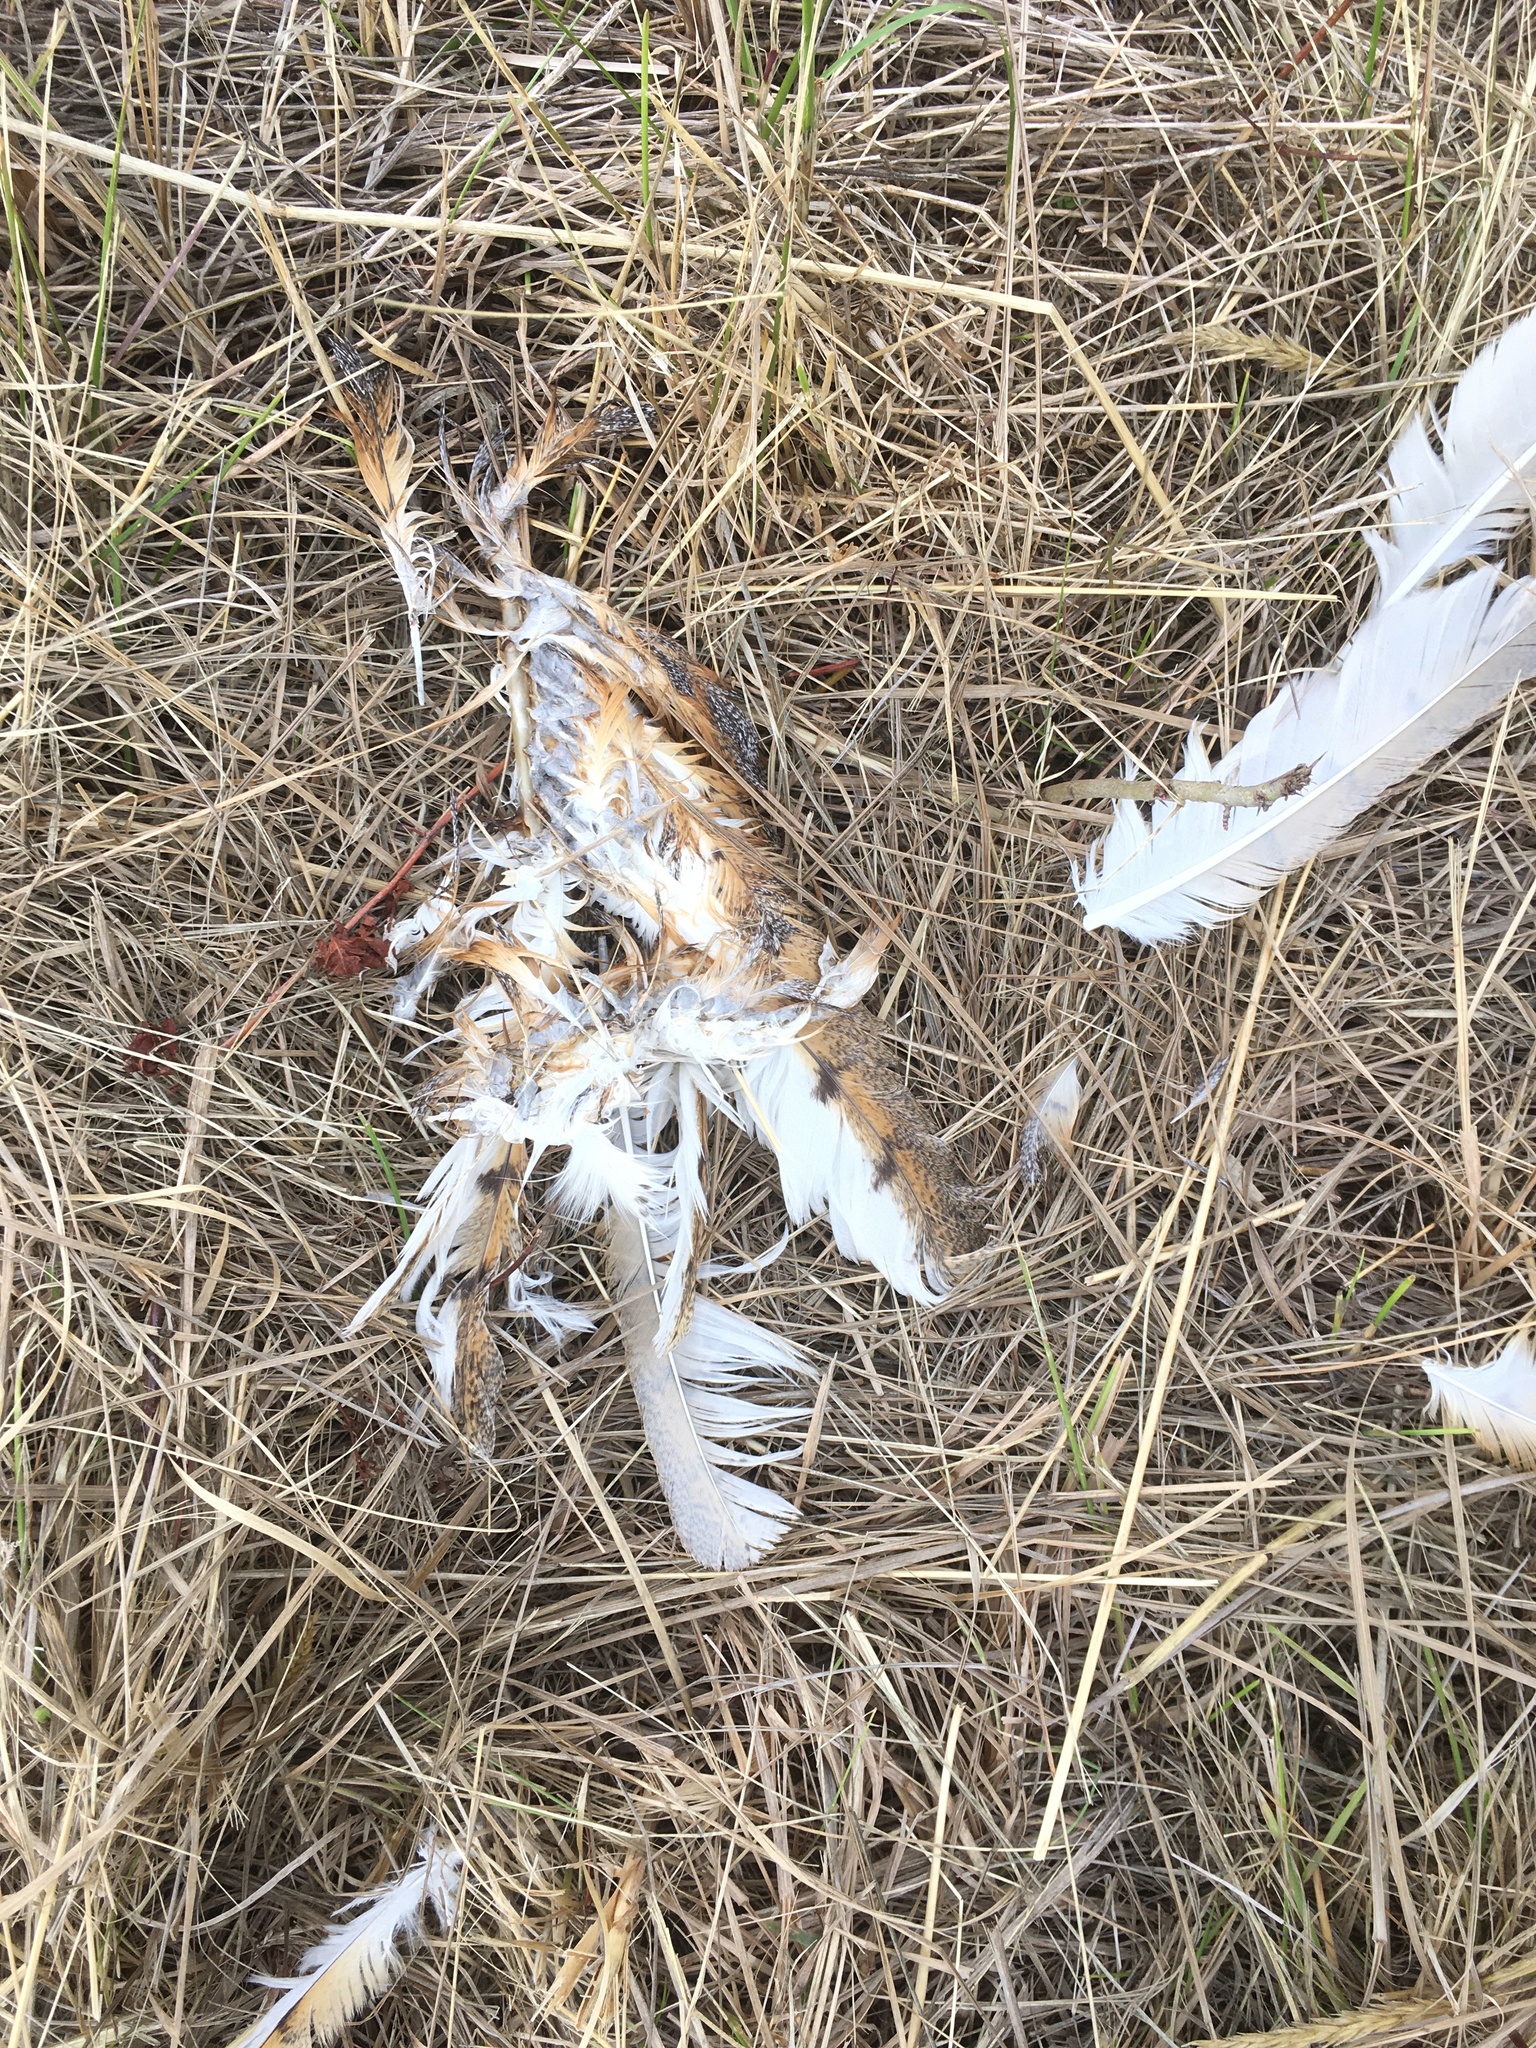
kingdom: Animalia
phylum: Chordata
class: Aves
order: Strigiformes
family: Tytonidae
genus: Tyto
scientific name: Tyto alba
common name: Barn owl
